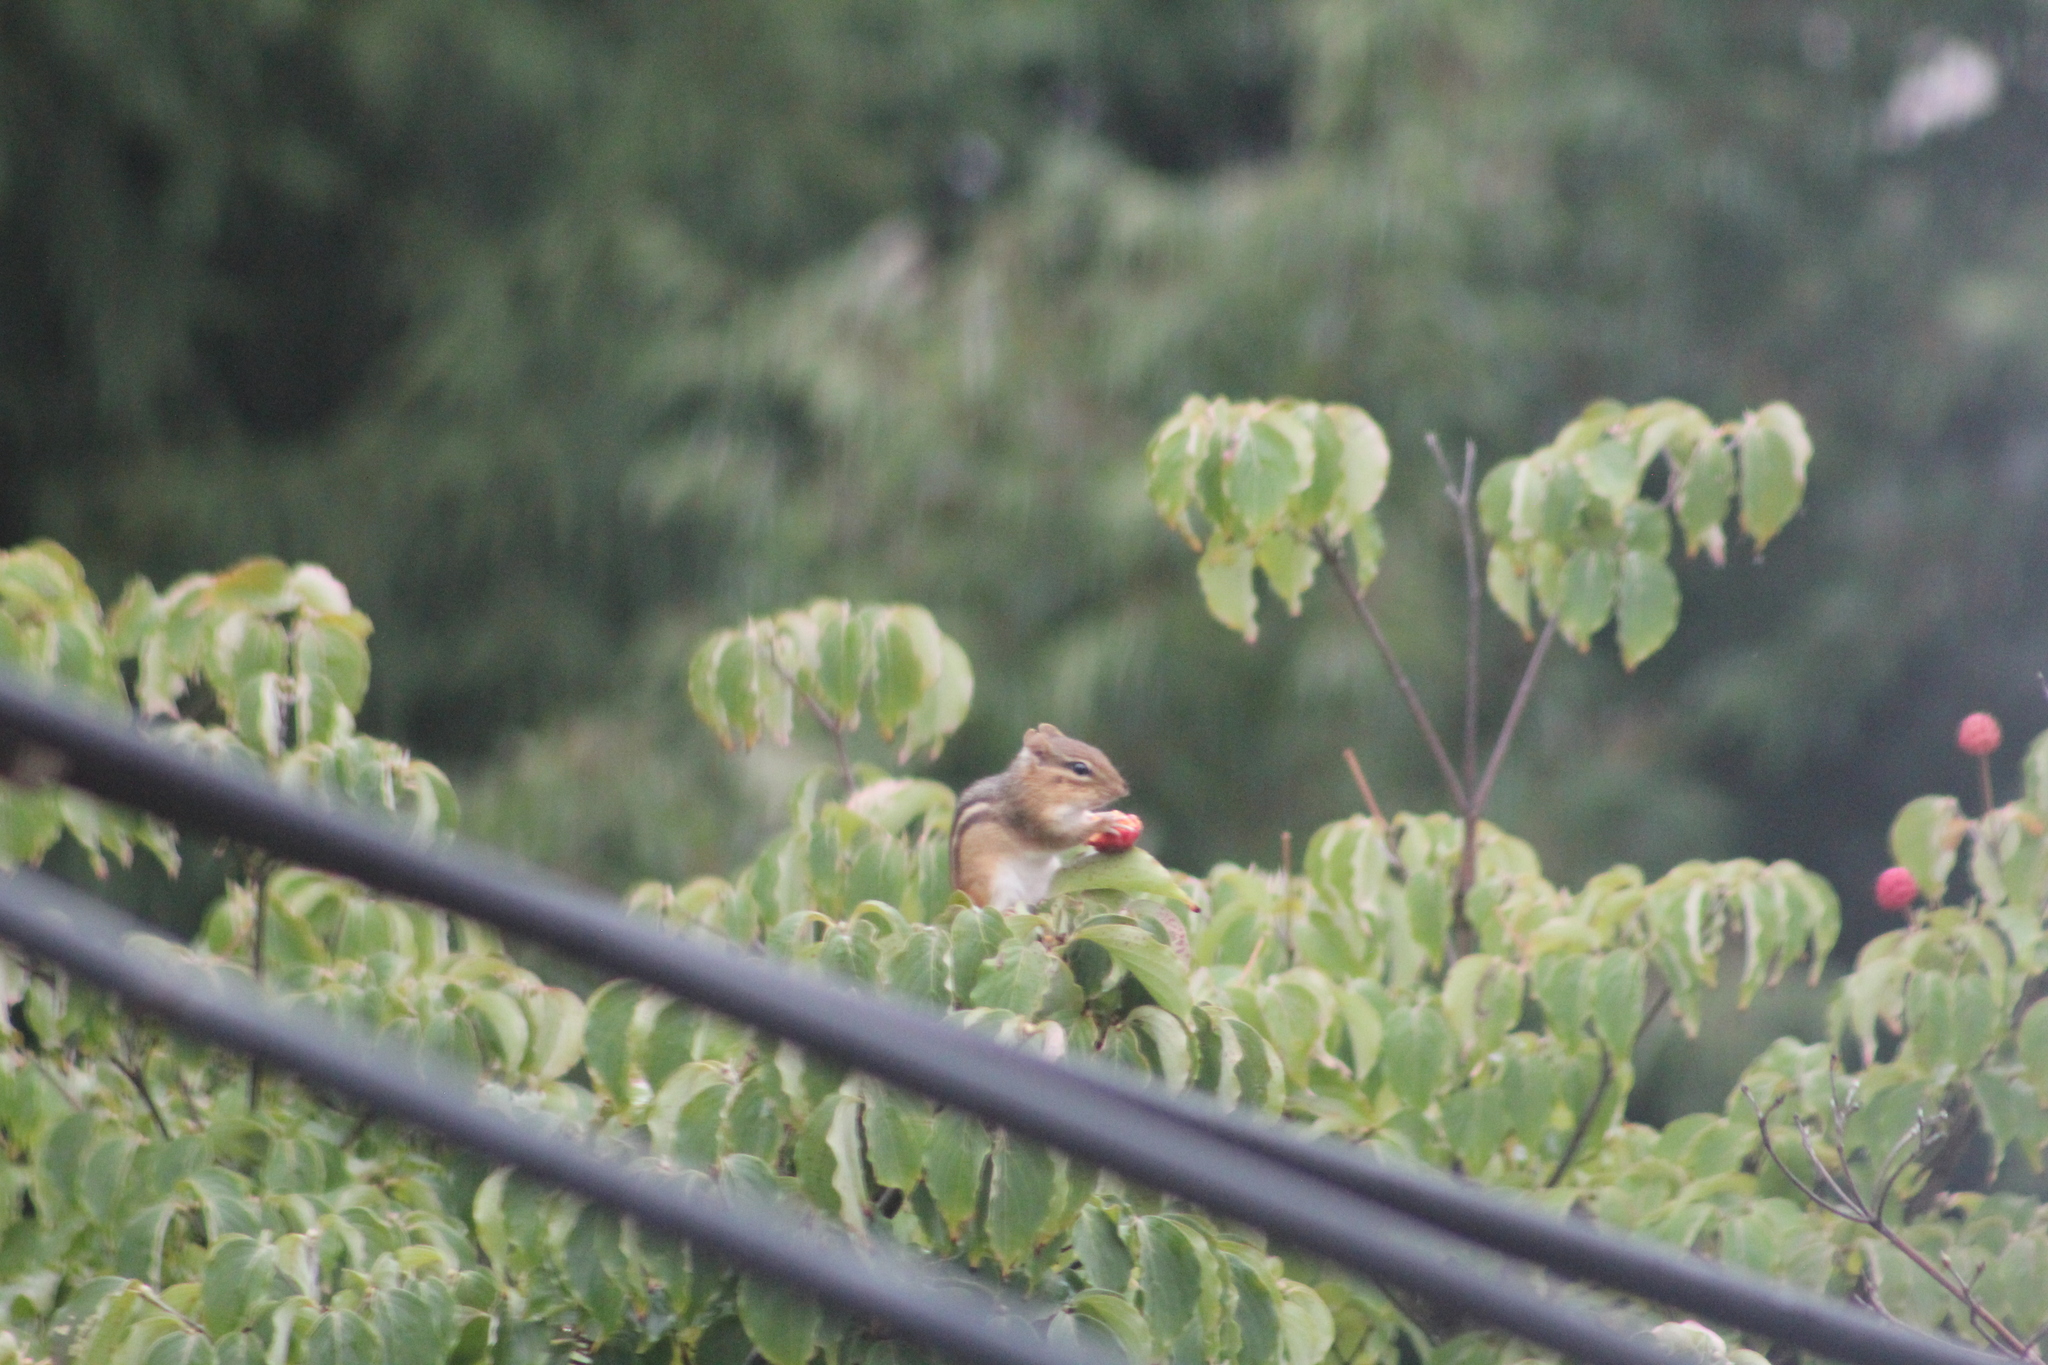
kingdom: Animalia
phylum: Chordata
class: Mammalia
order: Rodentia
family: Sciuridae
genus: Tamias
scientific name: Tamias striatus
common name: Eastern chipmunk
